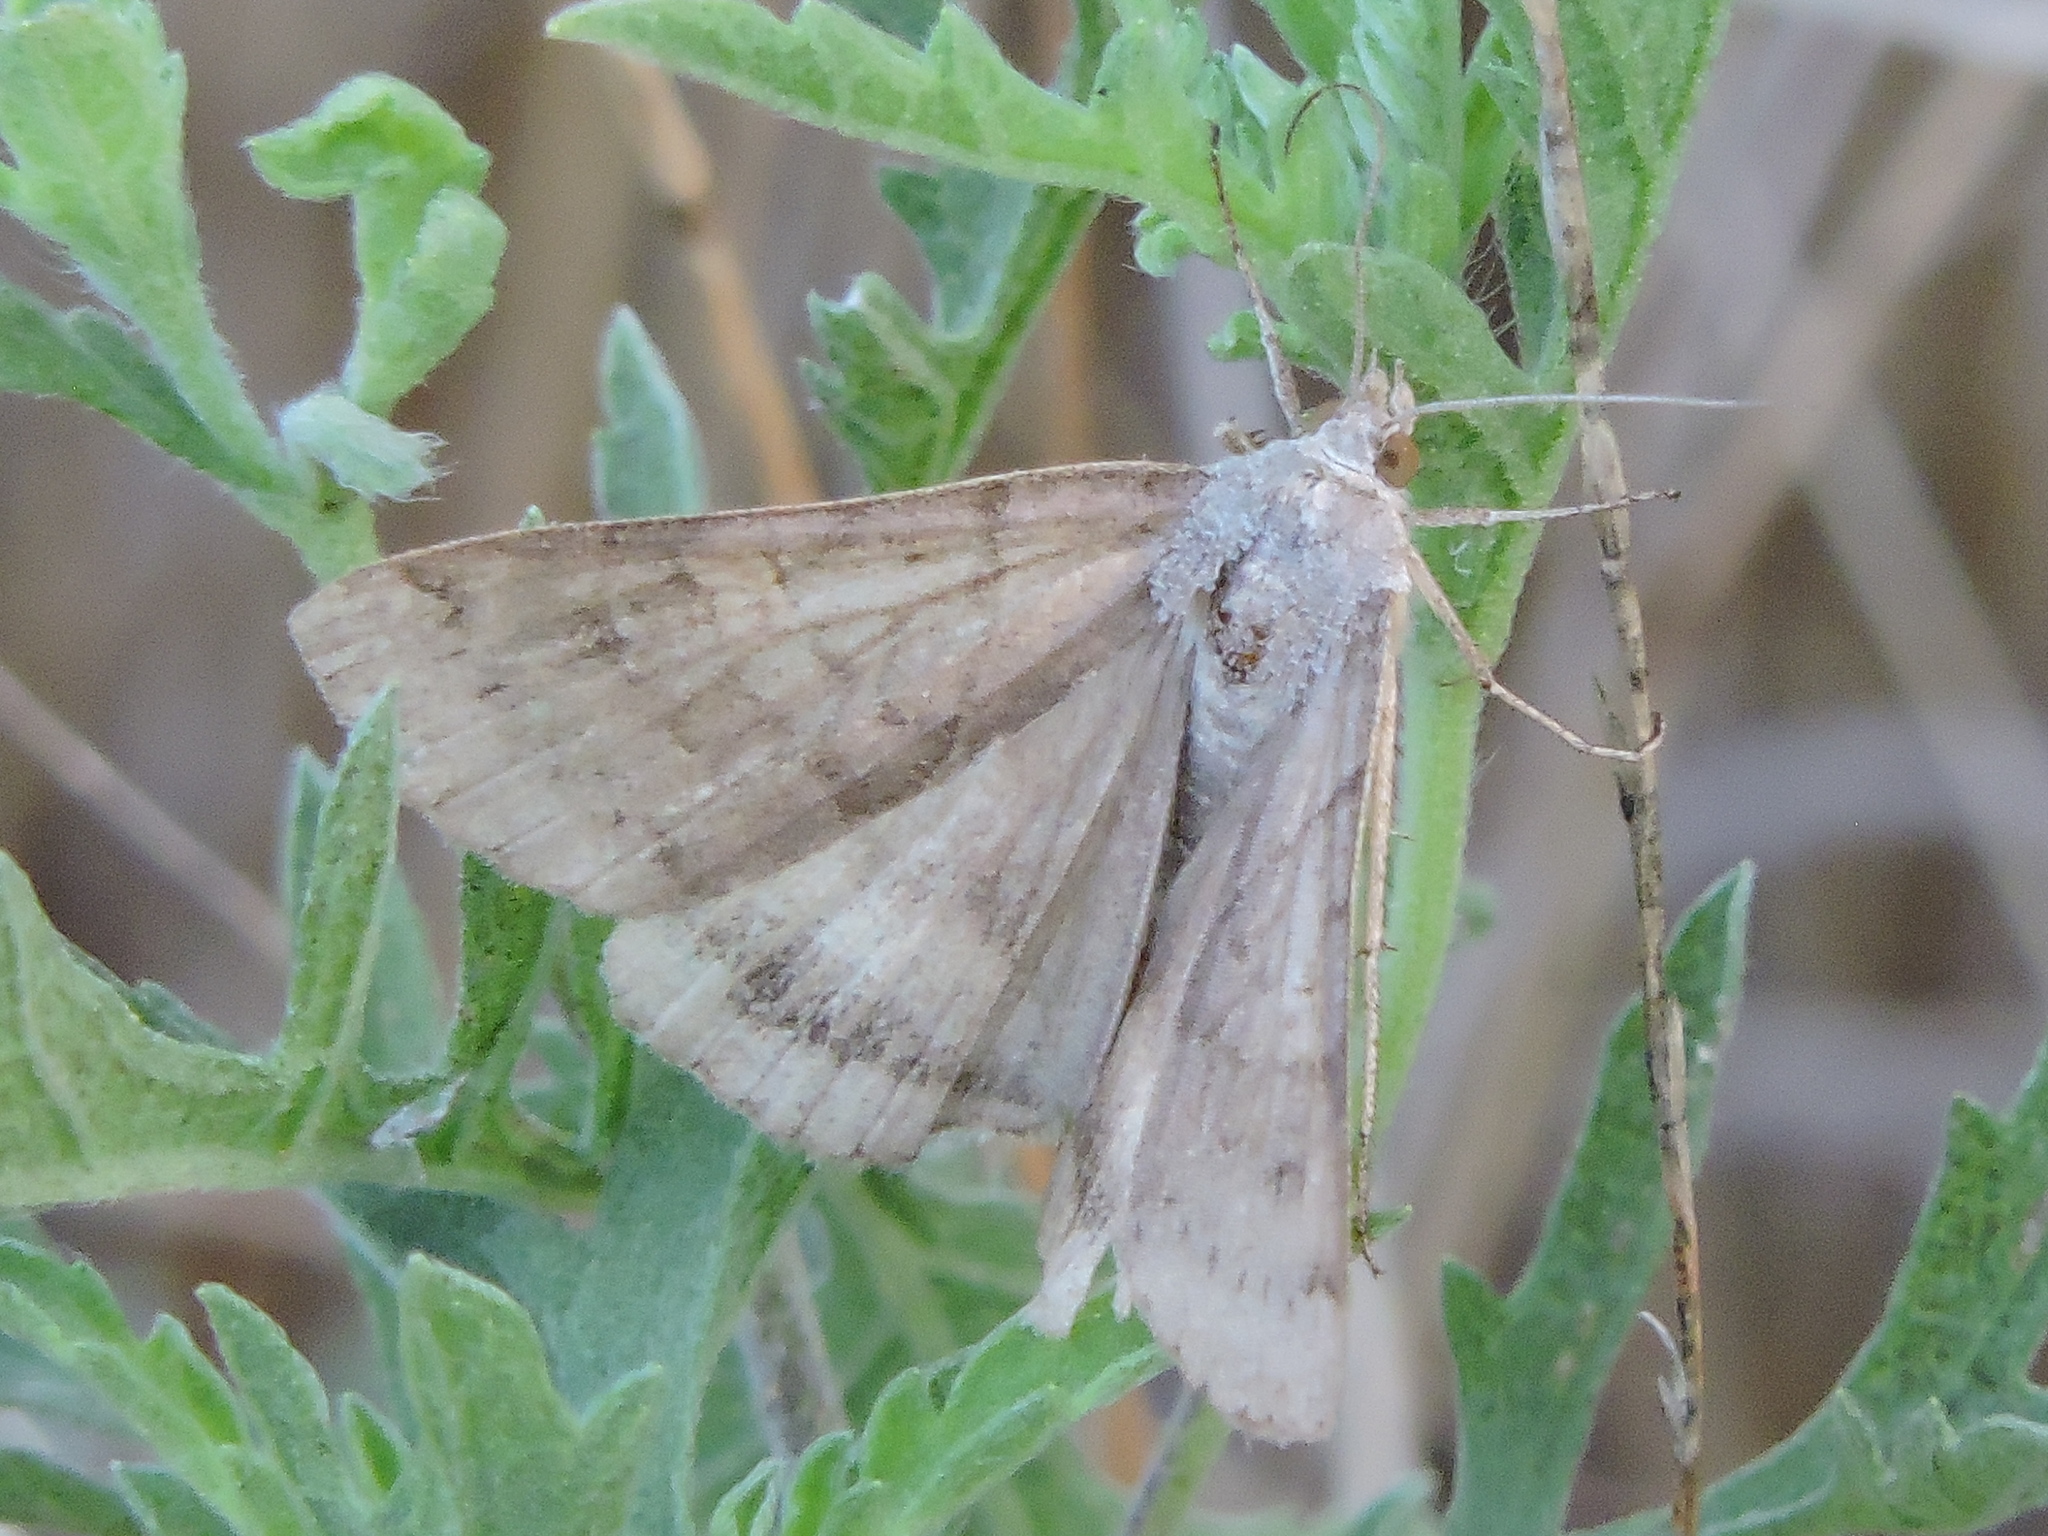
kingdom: Animalia
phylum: Arthropoda
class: Insecta
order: Lepidoptera
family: Erebidae
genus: Caenurgina
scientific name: Caenurgina erechtea
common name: Forage looper moth
